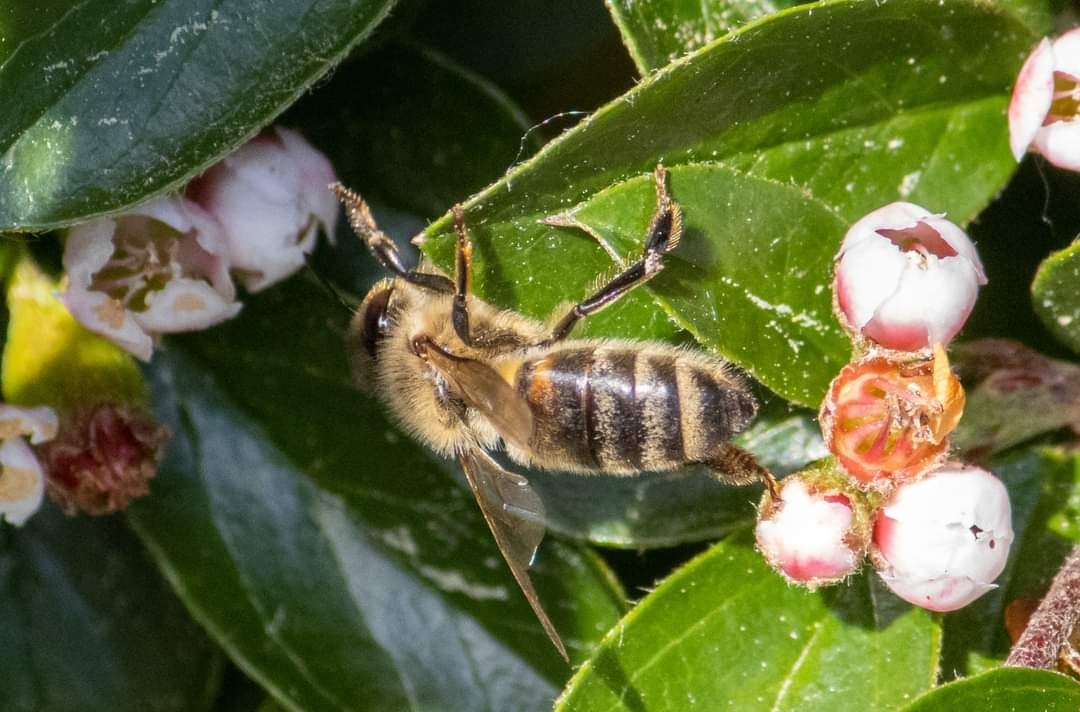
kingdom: Animalia
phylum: Arthropoda
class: Insecta
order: Hymenoptera
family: Apidae
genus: Apis
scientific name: Apis mellifera
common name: Honey bee
